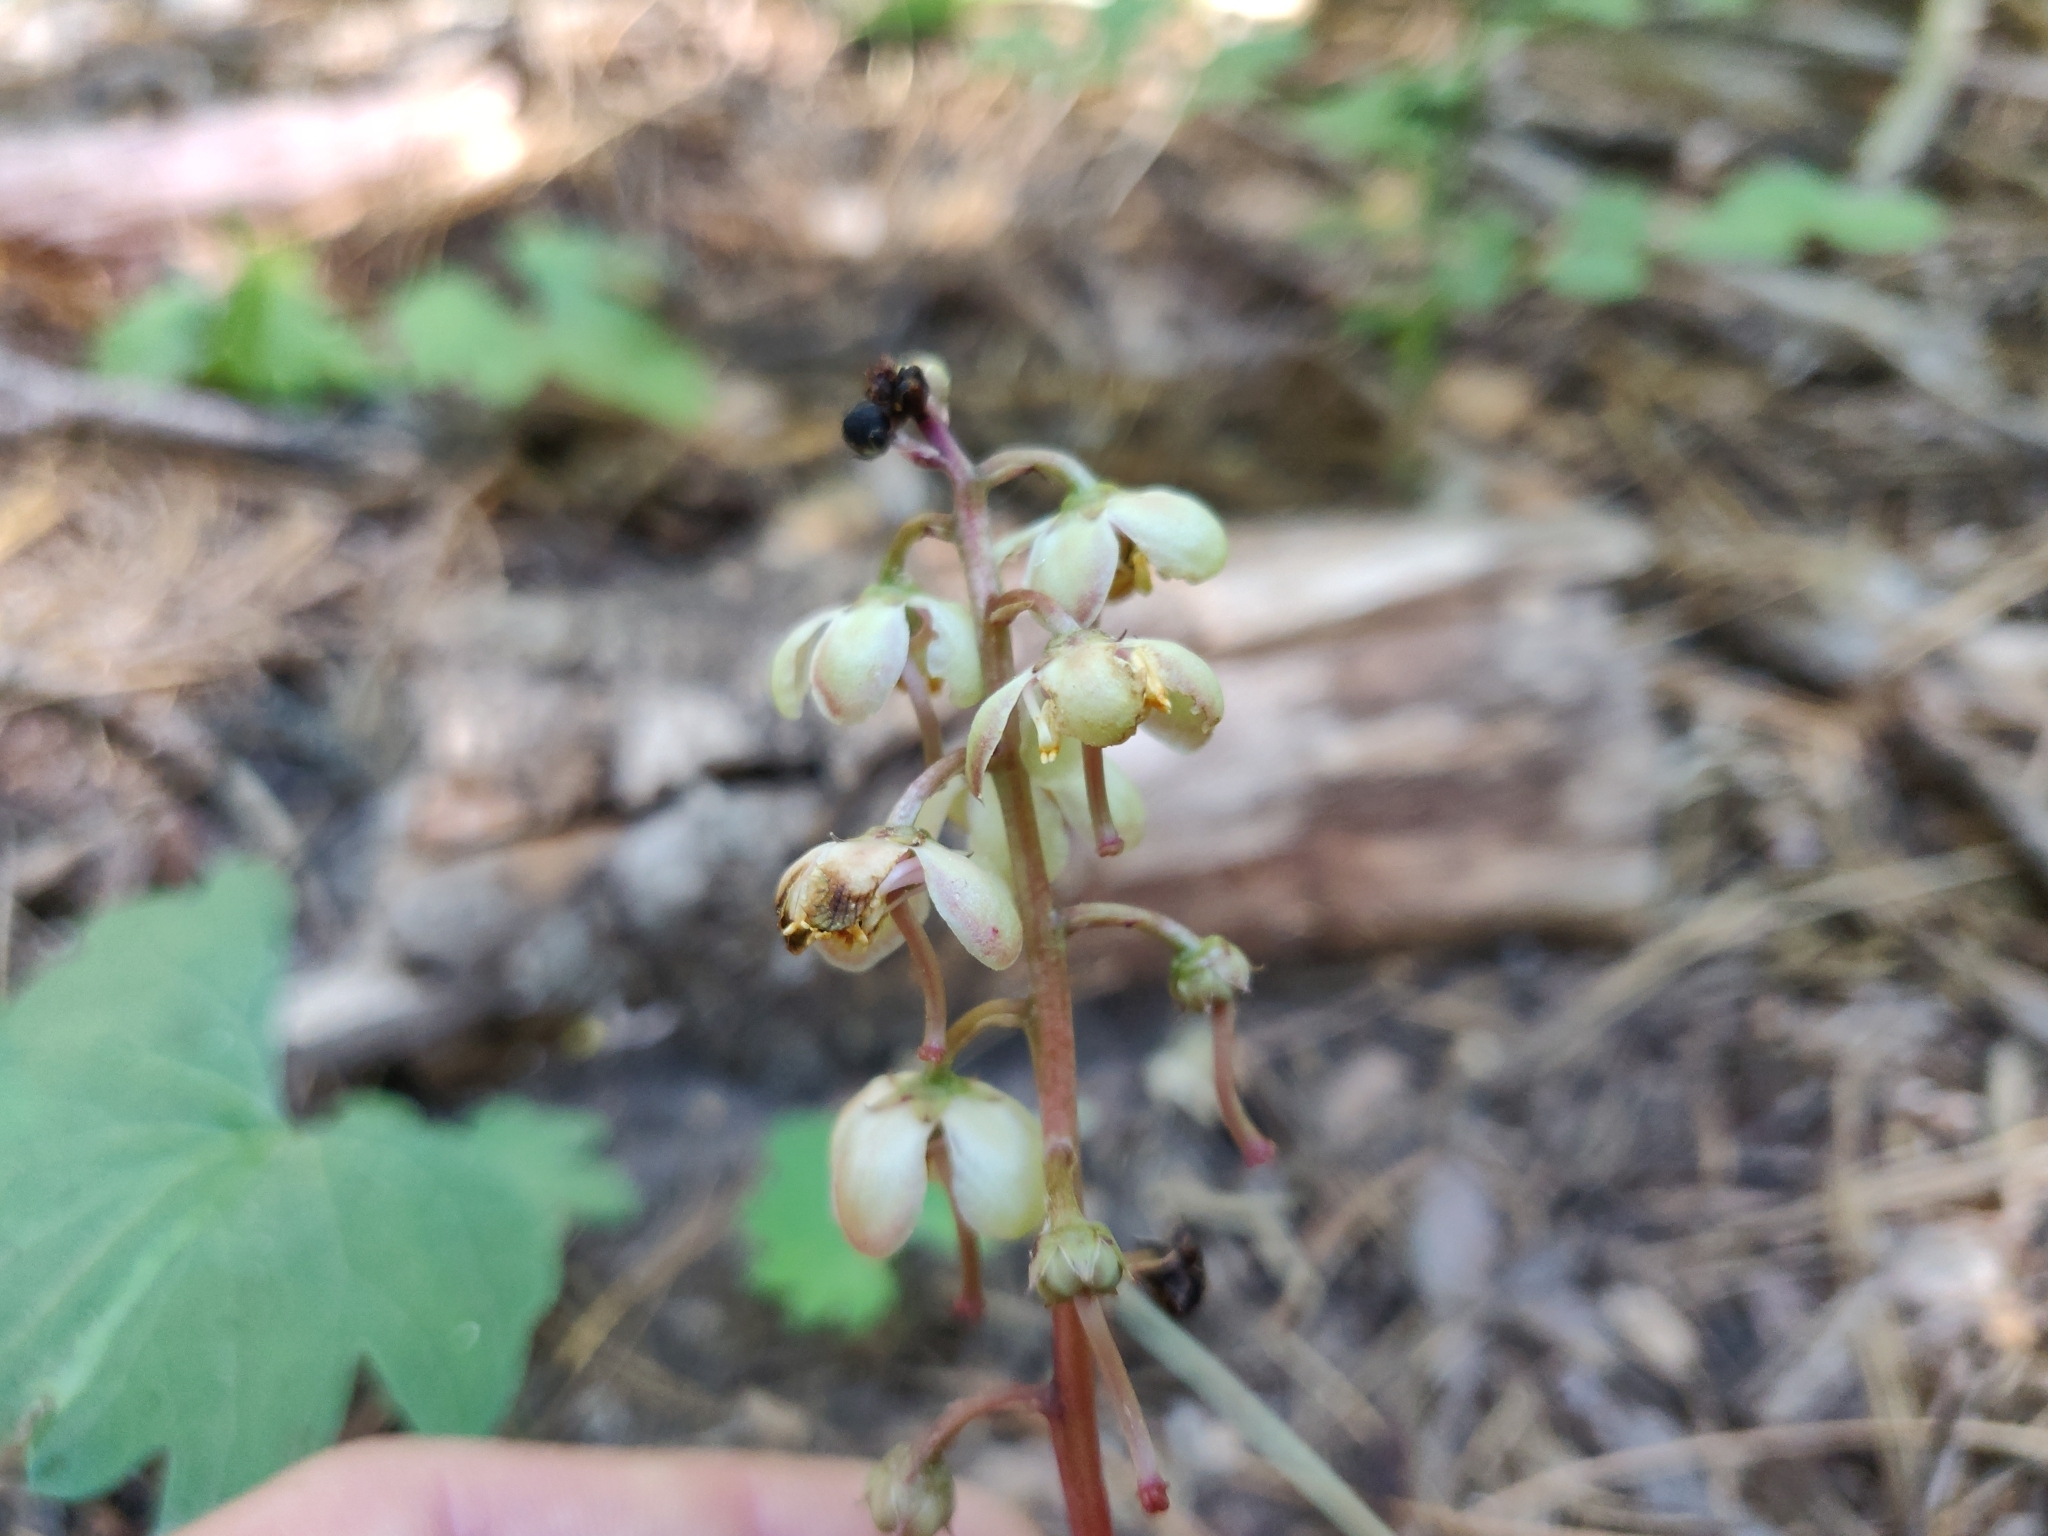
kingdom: Plantae
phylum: Tracheophyta
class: Magnoliopsida
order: Ericales
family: Ericaceae
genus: Pyrola
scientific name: Pyrola picta
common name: White-vein wintergreen
